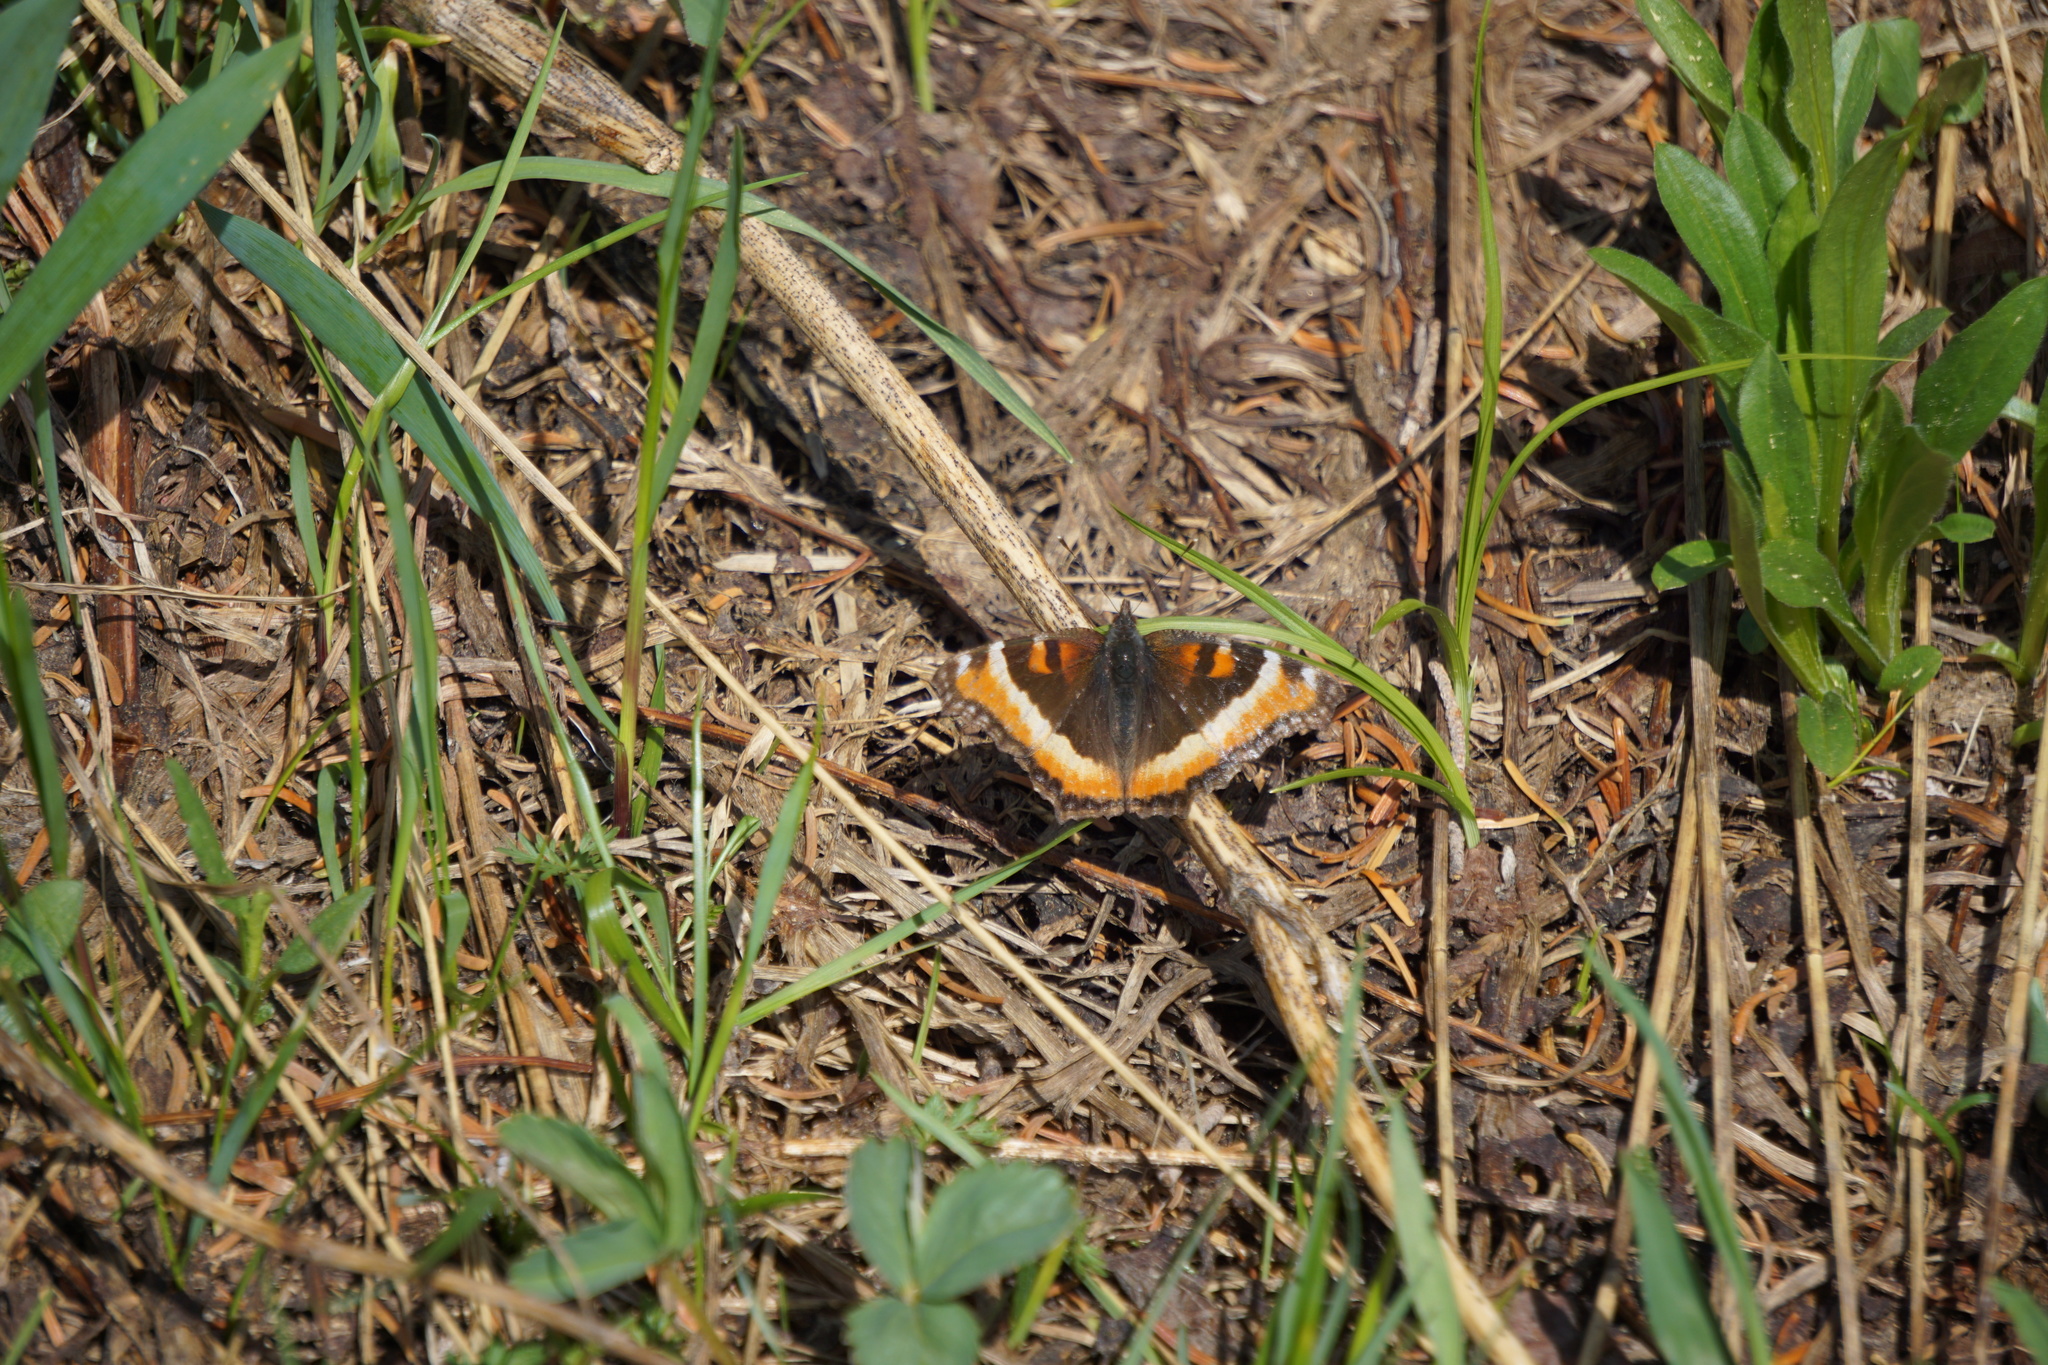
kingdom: Animalia
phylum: Arthropoda
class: Insecta
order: Lepidoptera
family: Nymphalidae
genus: Aglais
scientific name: Aglais milberti
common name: Milbert's tortoiseshell
